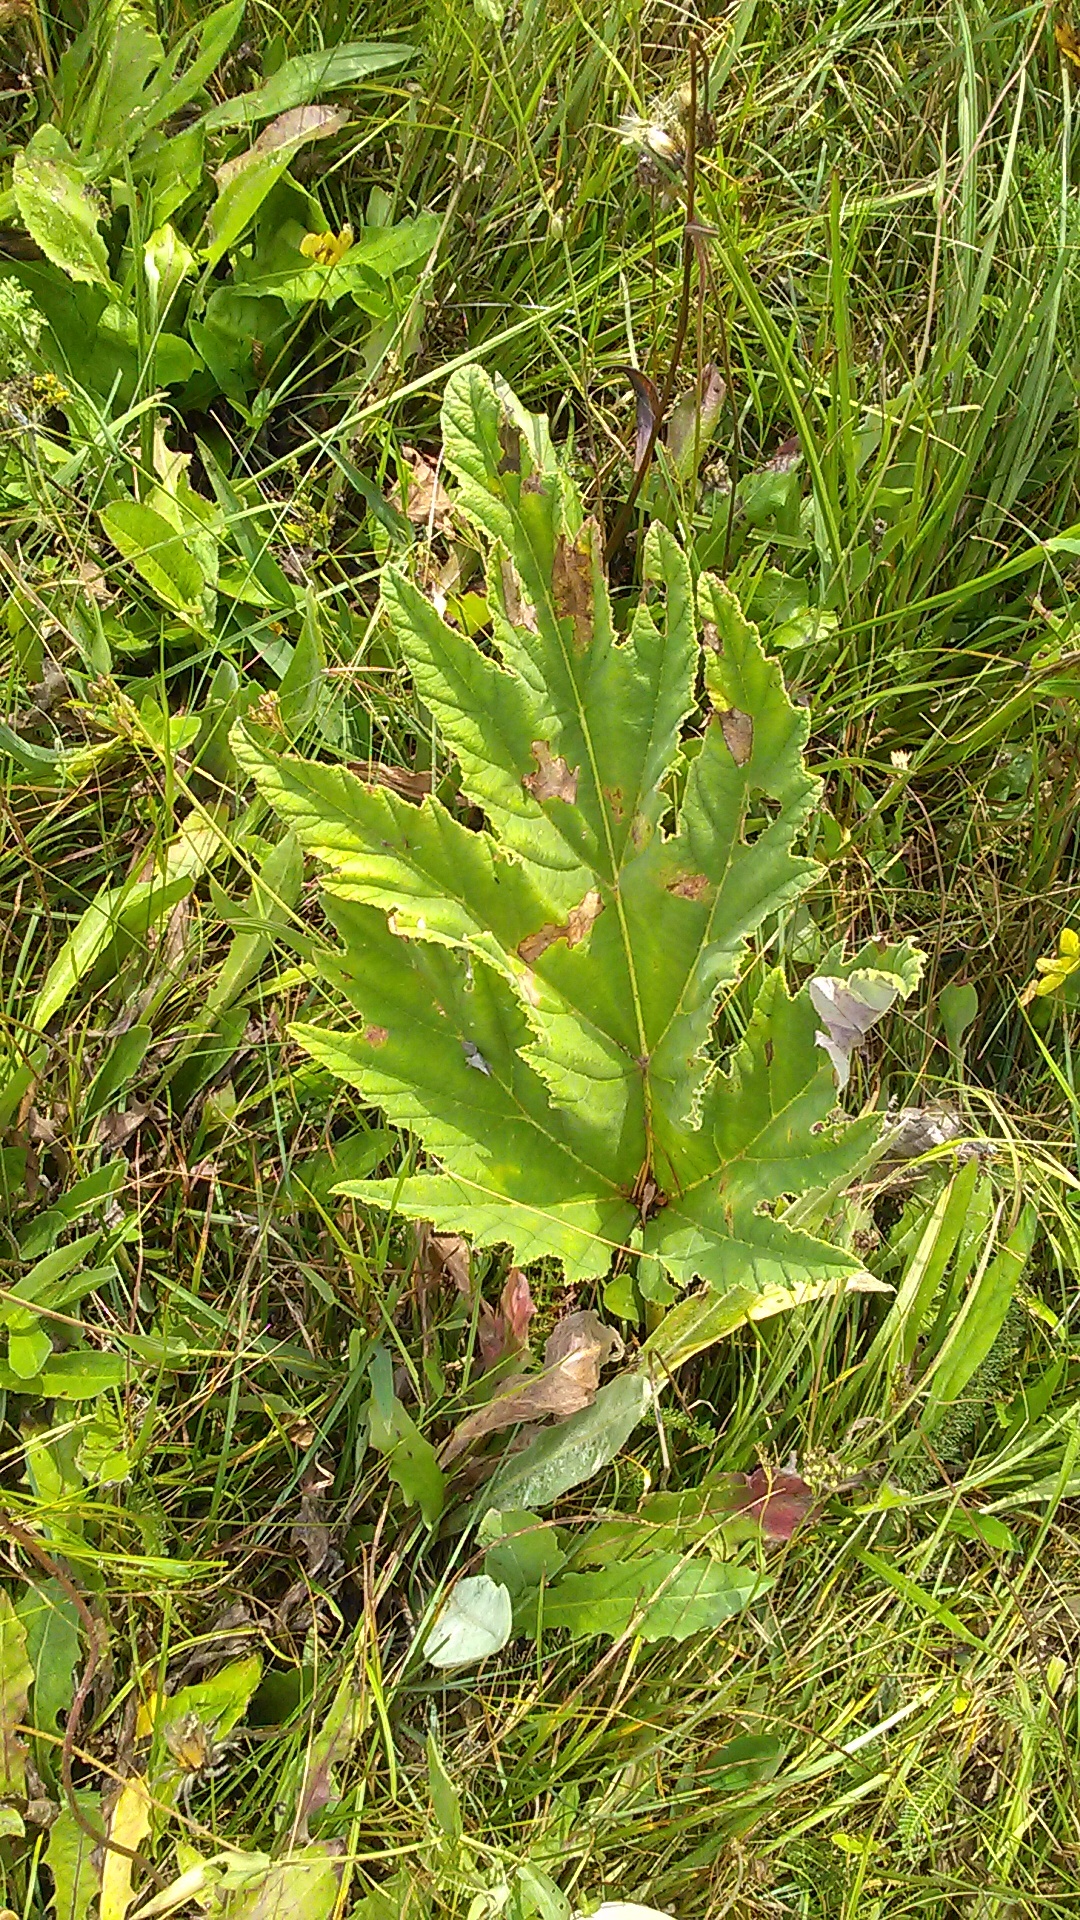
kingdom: Plantae
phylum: Tracheophyta
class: Magnoliopsida
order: Apiales
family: Apiaceae
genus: Heracleum
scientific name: Heracleum leskovii
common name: Leskov's cow-parsnip
